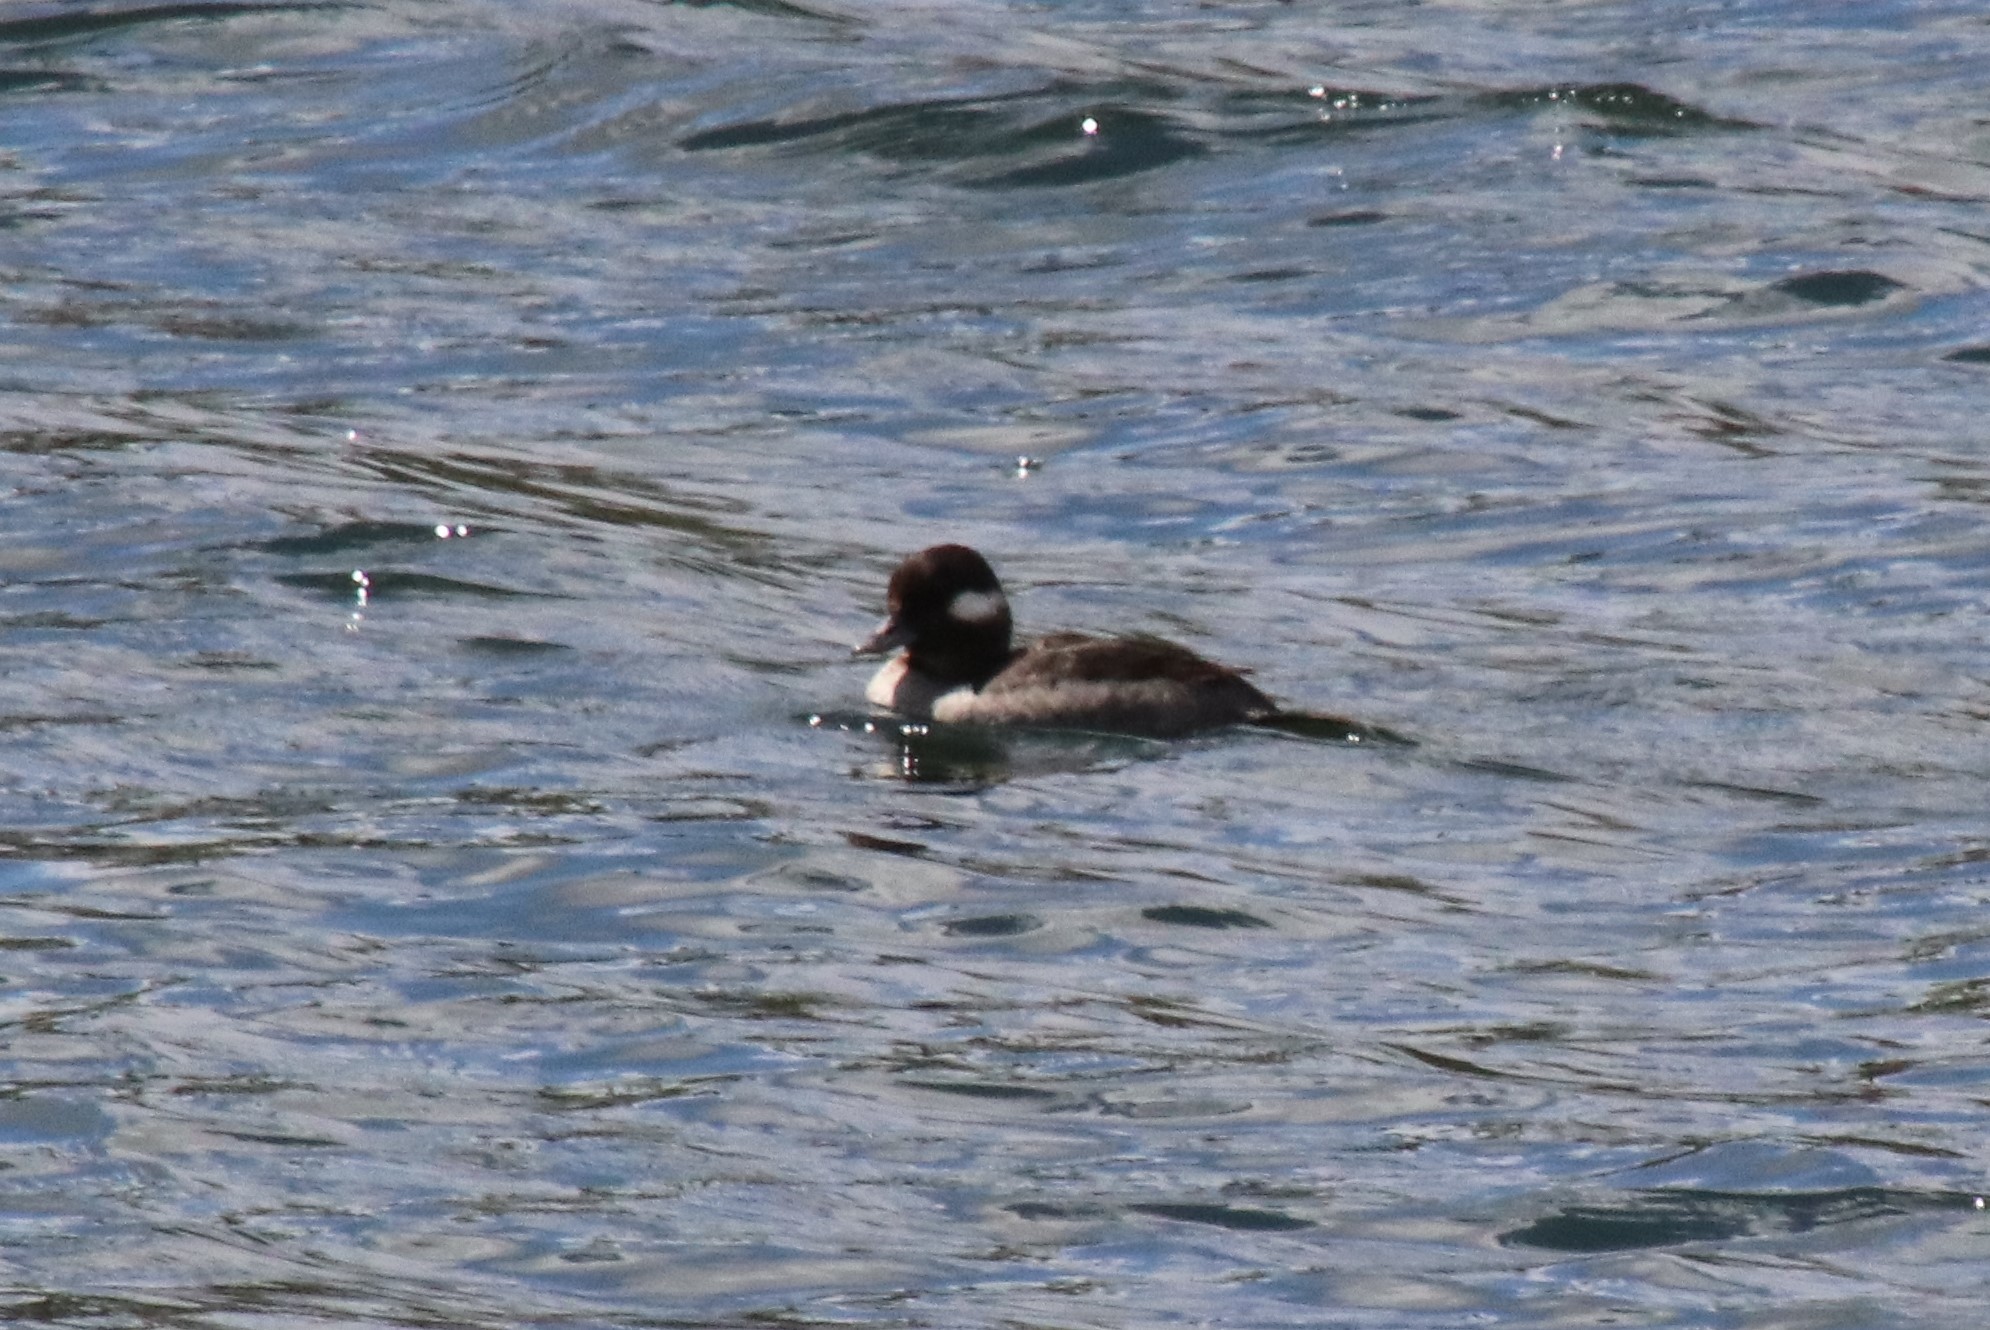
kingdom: Animalia
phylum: Chordata
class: Aves
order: Anseriformes
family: Anatidae
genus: Bucephala
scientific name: Bucephala albeola
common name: Bufflehead
